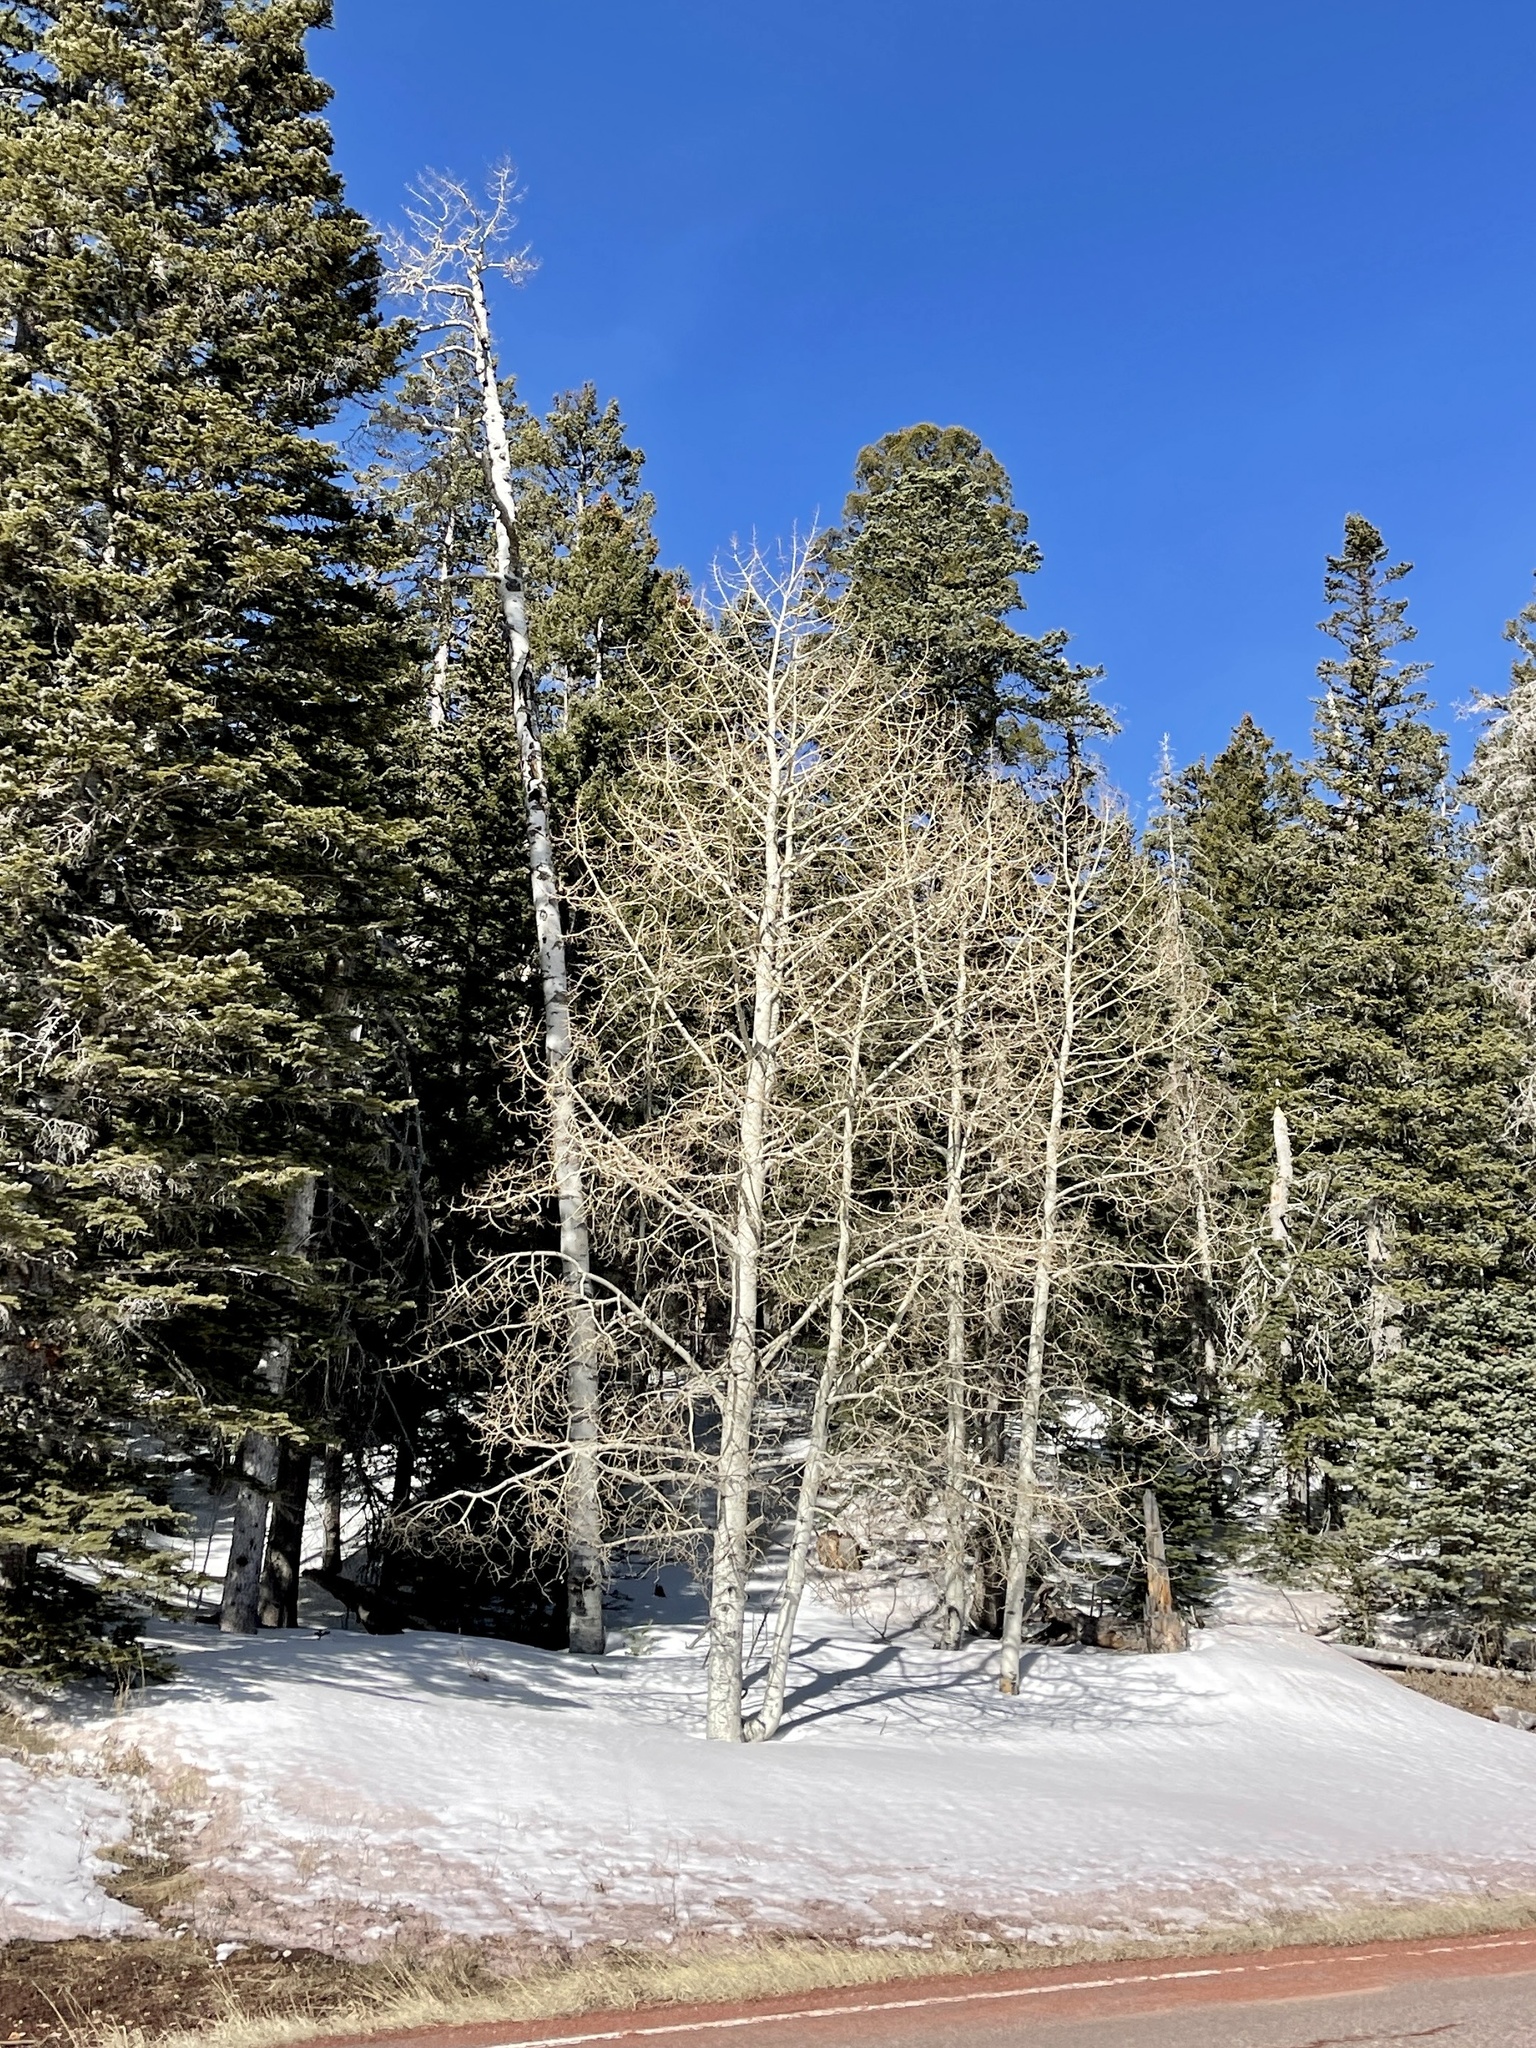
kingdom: Plantae
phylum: Tracheophyta
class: Magnoliopsida
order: Malpighiales
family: Salicaceae
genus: Populus
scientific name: Populus tremuloides
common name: Quaking aspen
